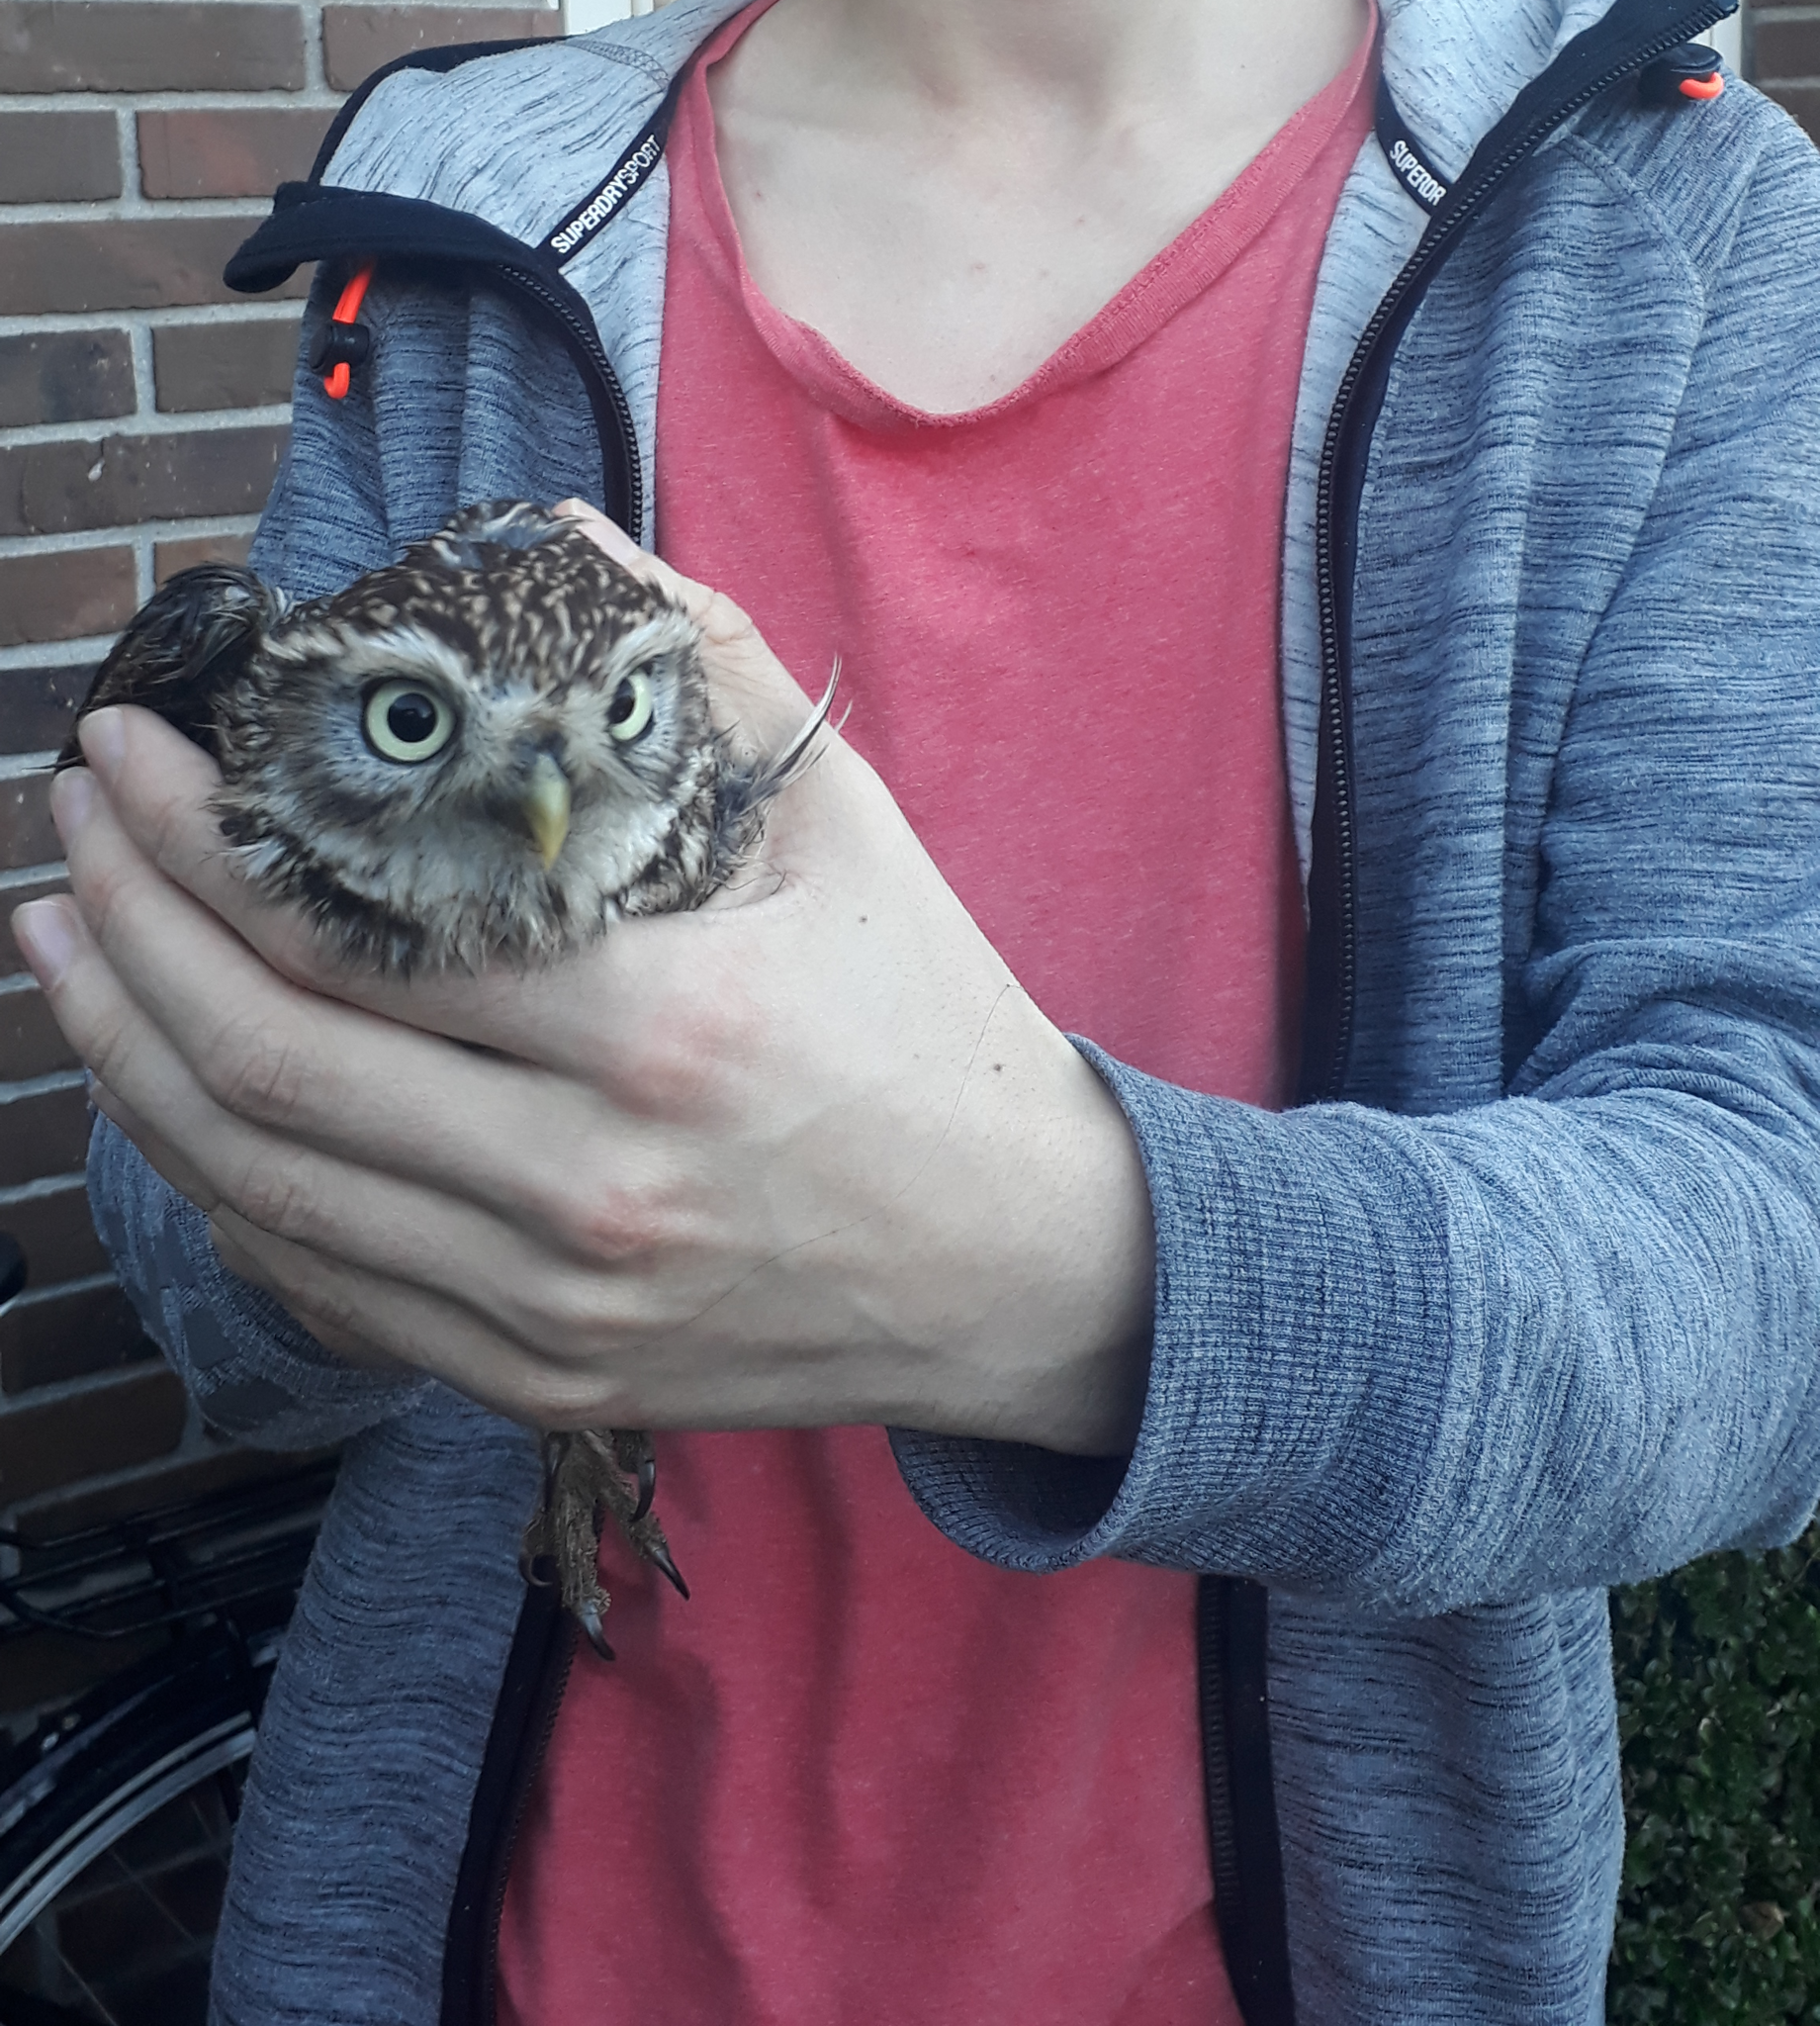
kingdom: Animalia
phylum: Chordata
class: Aves
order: Strigiformes
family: Strigidae
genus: Athene
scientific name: Athene noctua
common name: Little owl
